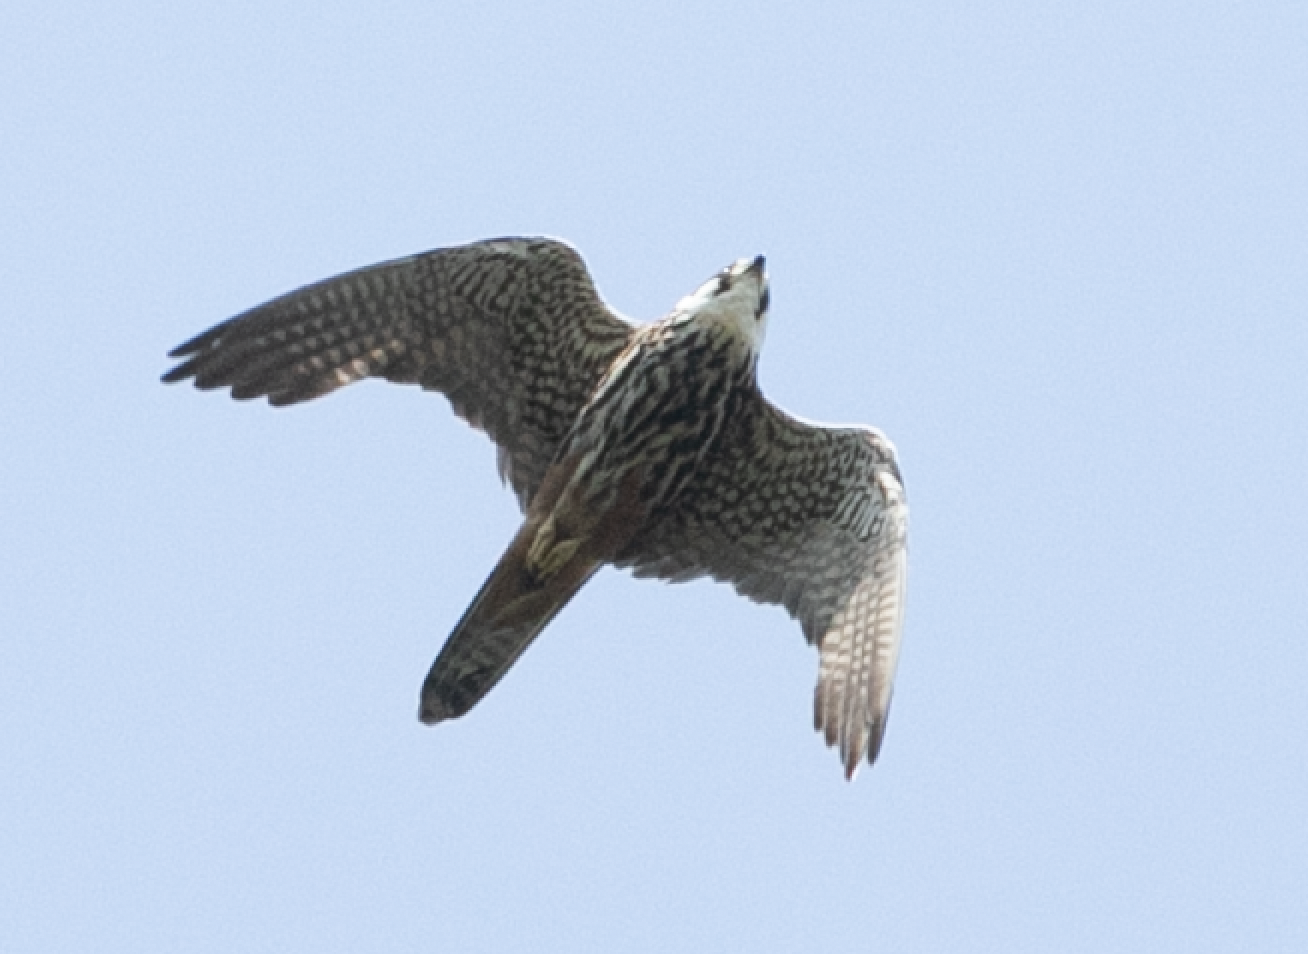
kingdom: Animalia
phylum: Chordata
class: Aves
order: Falconiformes
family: Falconidae
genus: Falco
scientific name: Falco subbuteo
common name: Eurasian hobby
